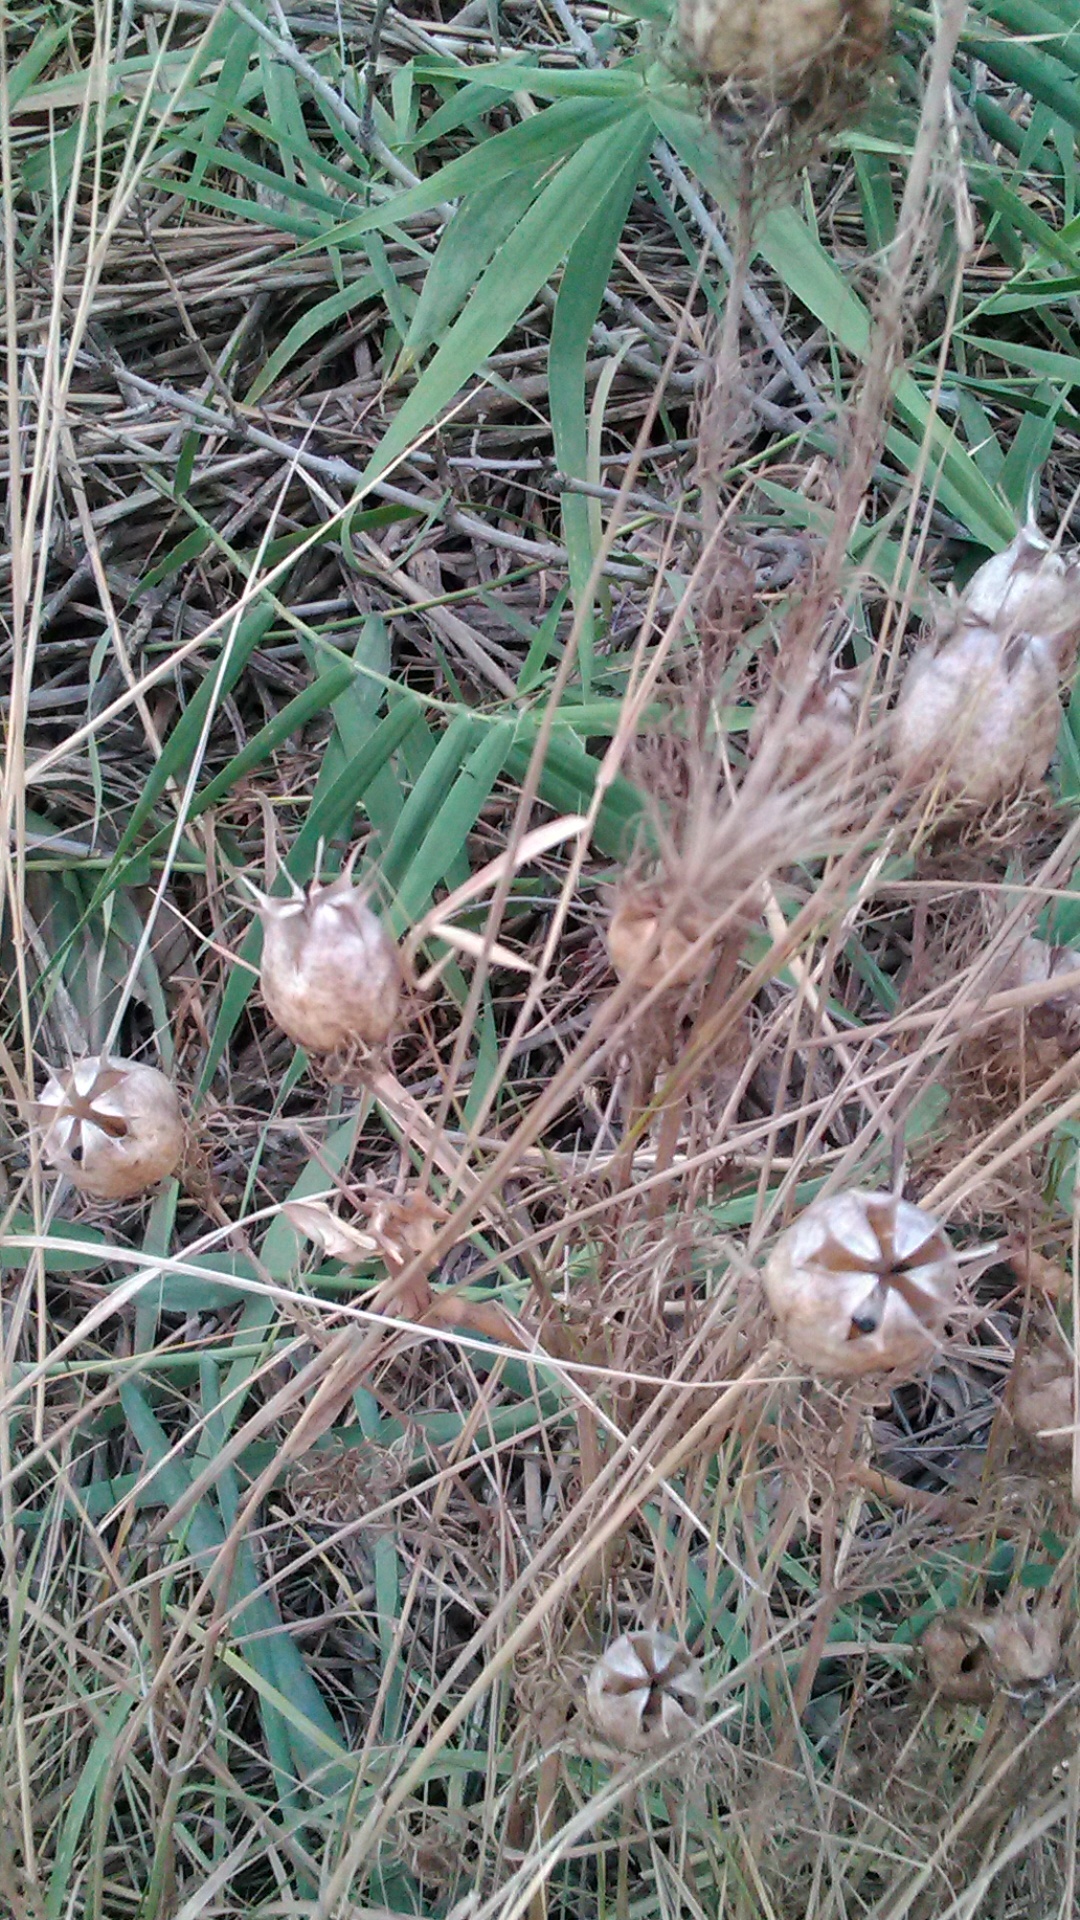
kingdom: Plantae
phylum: Tracheophyta
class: Magnoliopsida
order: Ranunculales
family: Ranunculaceae
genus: Nigella
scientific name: Nigella damascena
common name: Love-in-a-mist
